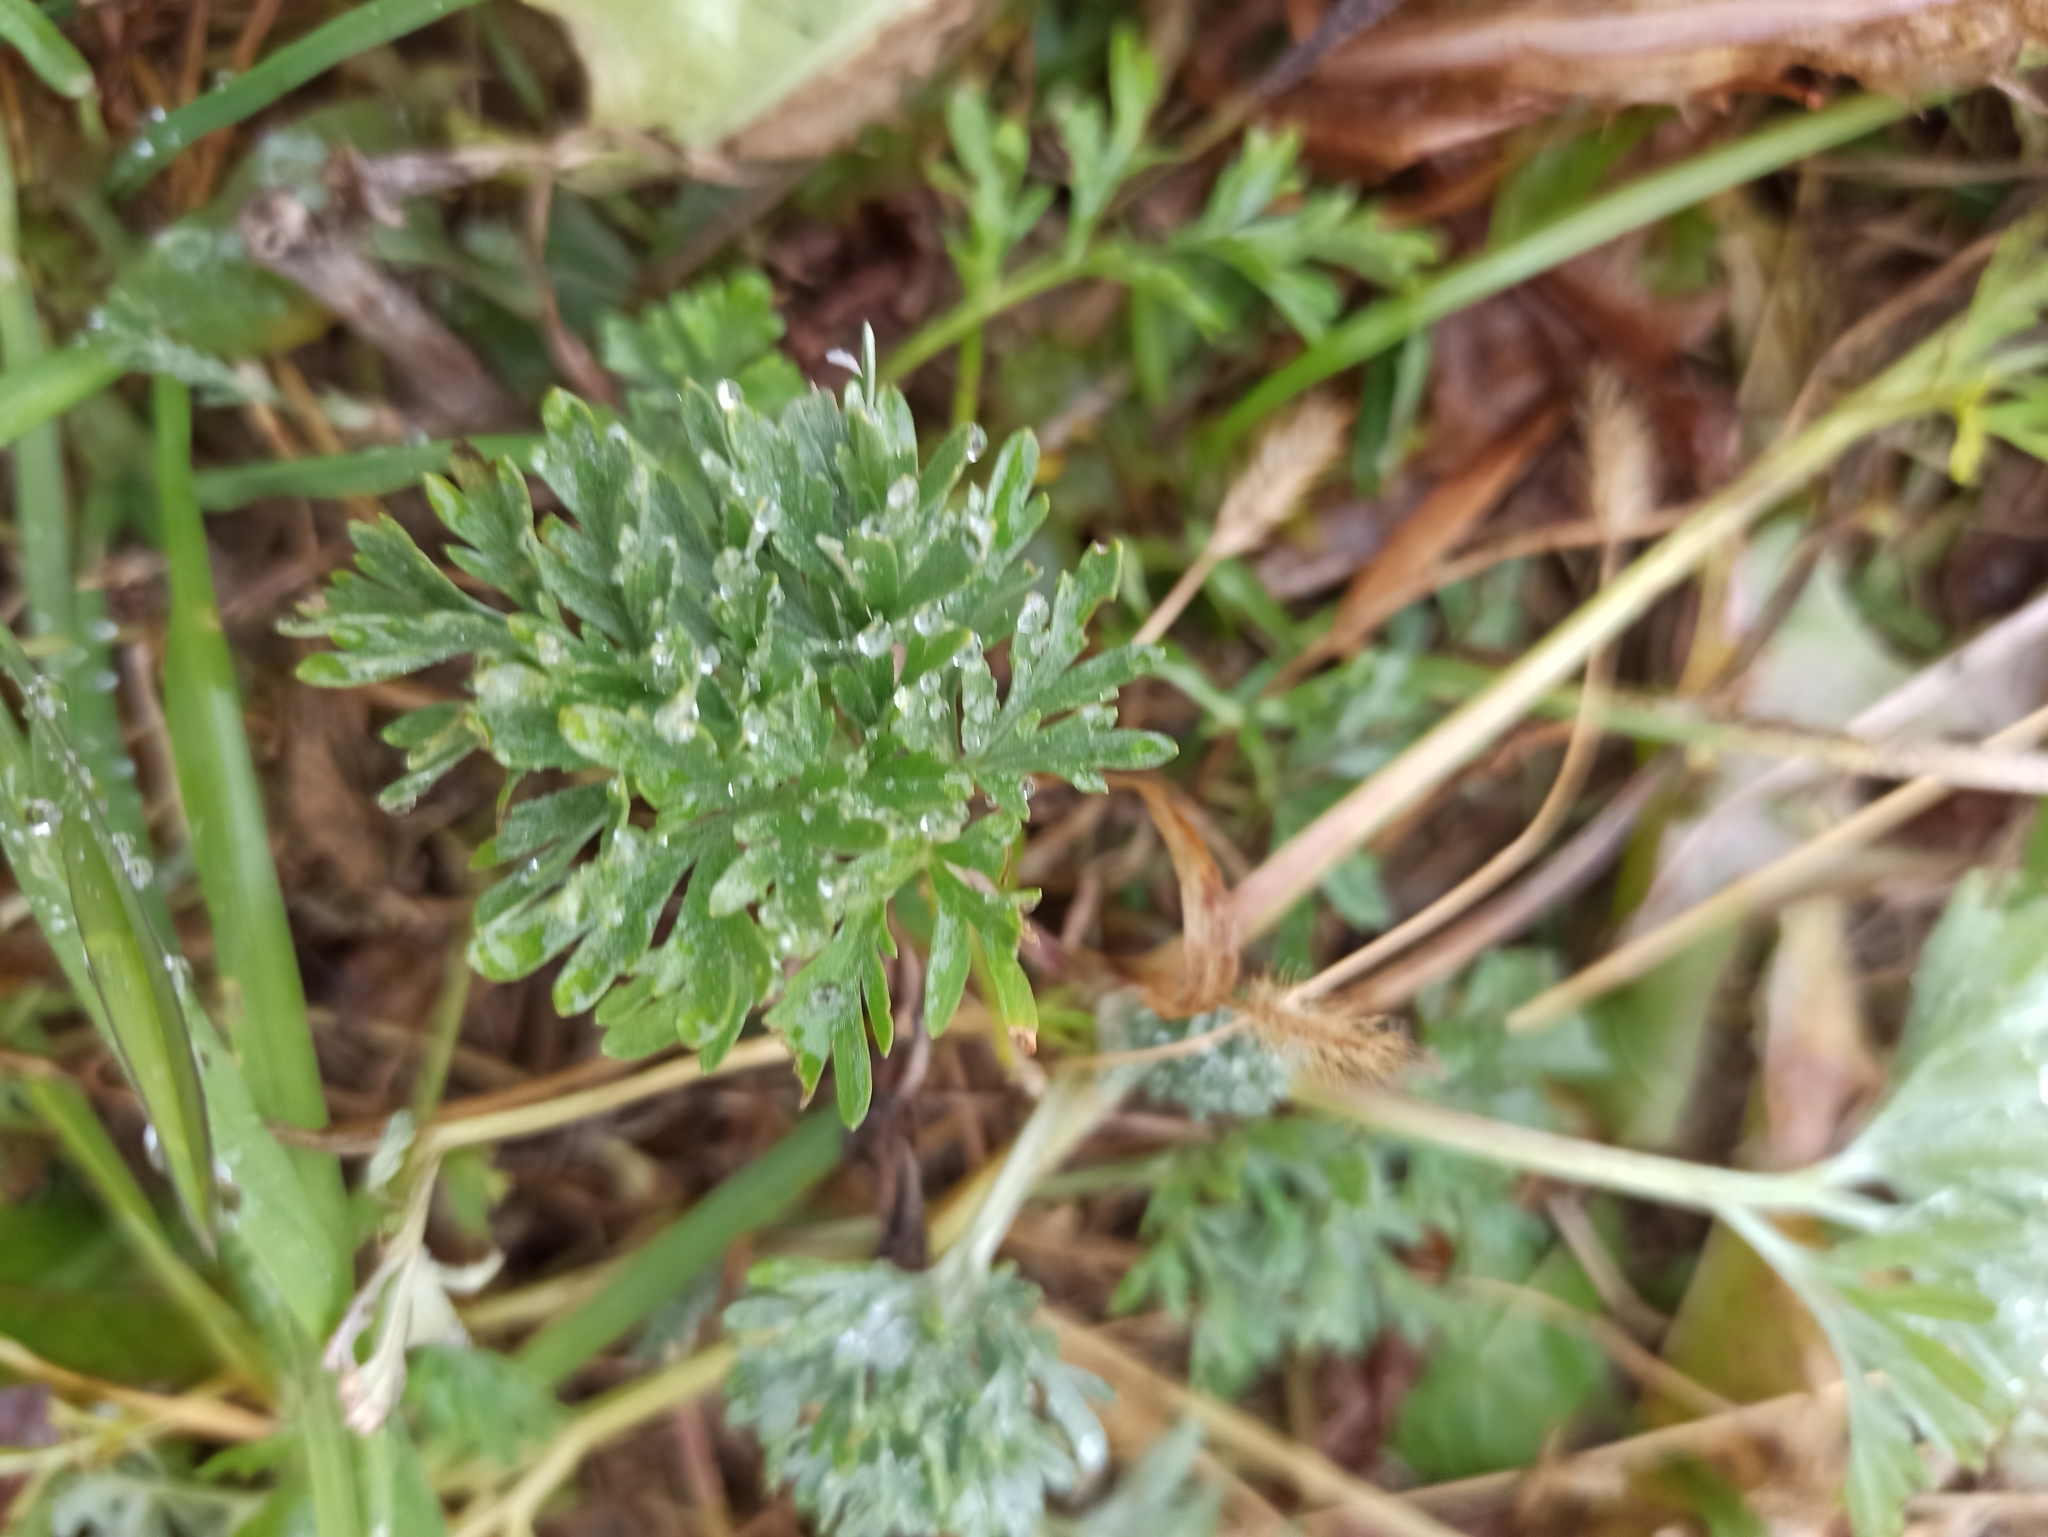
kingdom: Plantae
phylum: Tracheophyta
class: Magnoliopsida
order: Asterales
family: Asteraceae
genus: Artemisia
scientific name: Artemisia absinthium
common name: Wormwood
